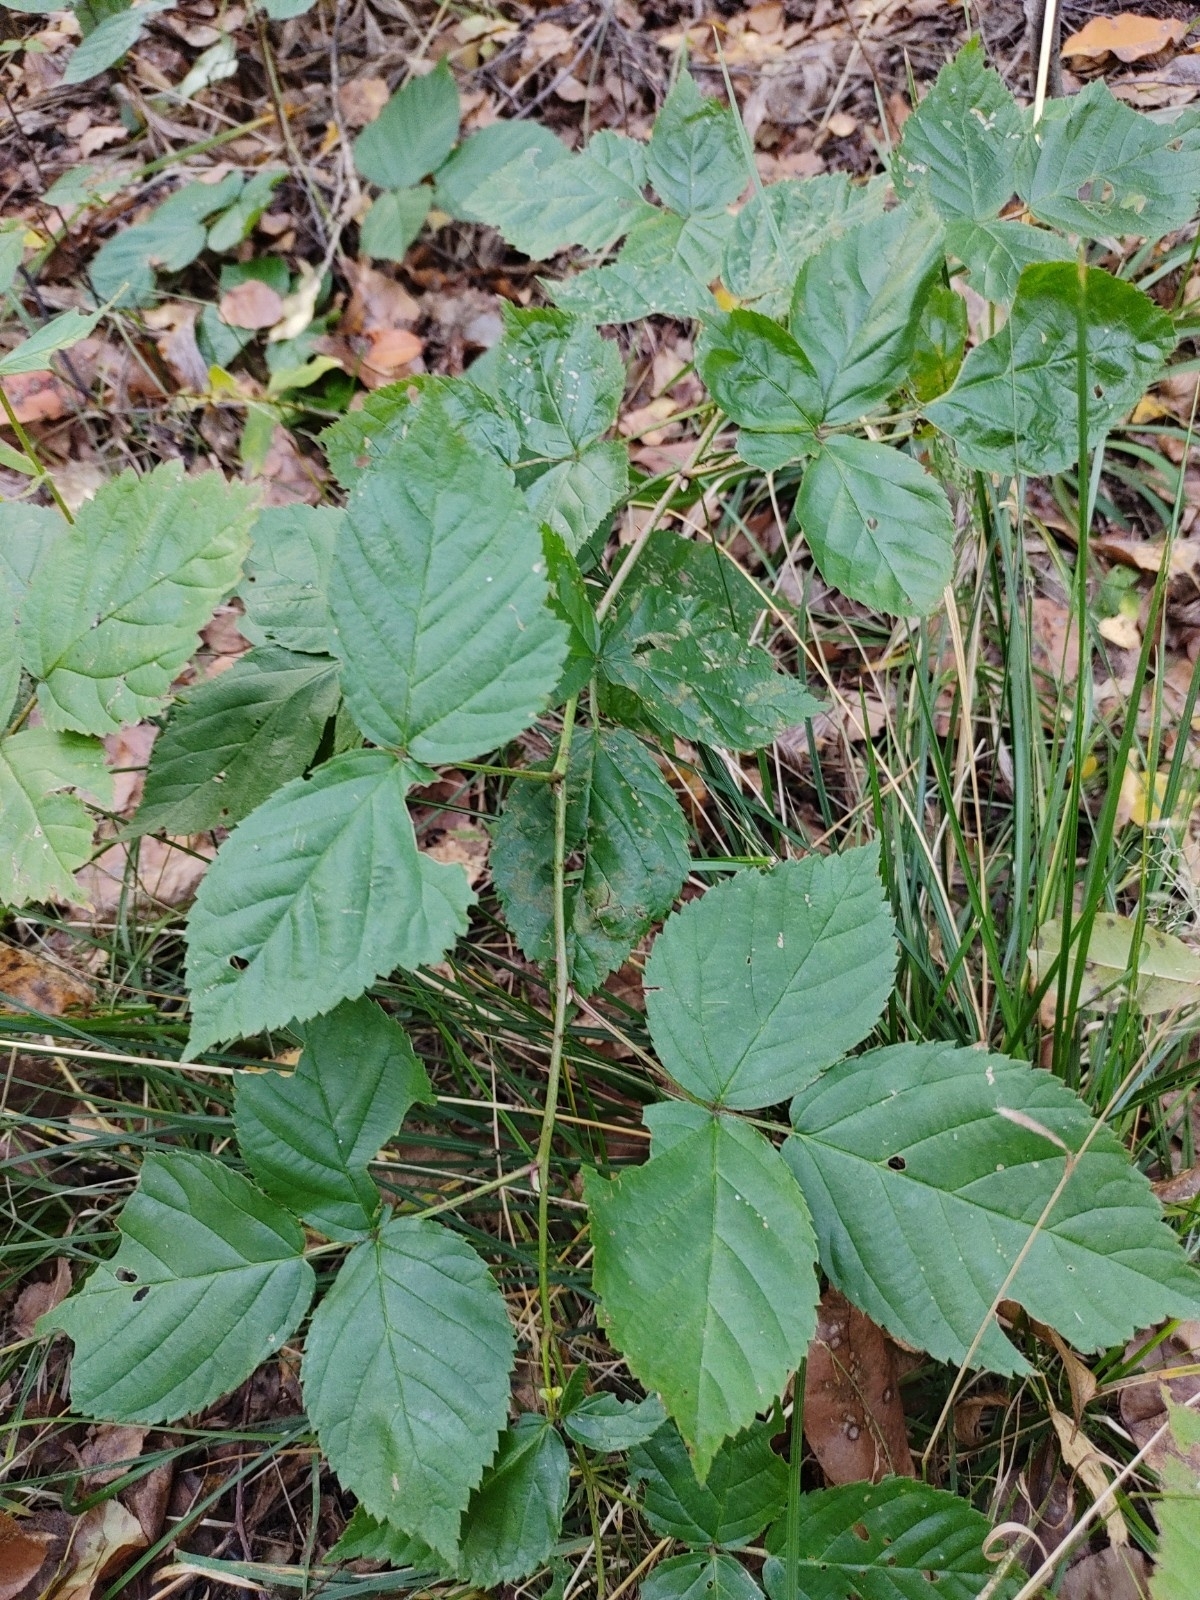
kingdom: Plantae
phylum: Tracheophyta
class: Magnoliopsida
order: Rosales
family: Rosaceae
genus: Rubus
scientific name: Rubus caesius
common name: Dewberry
